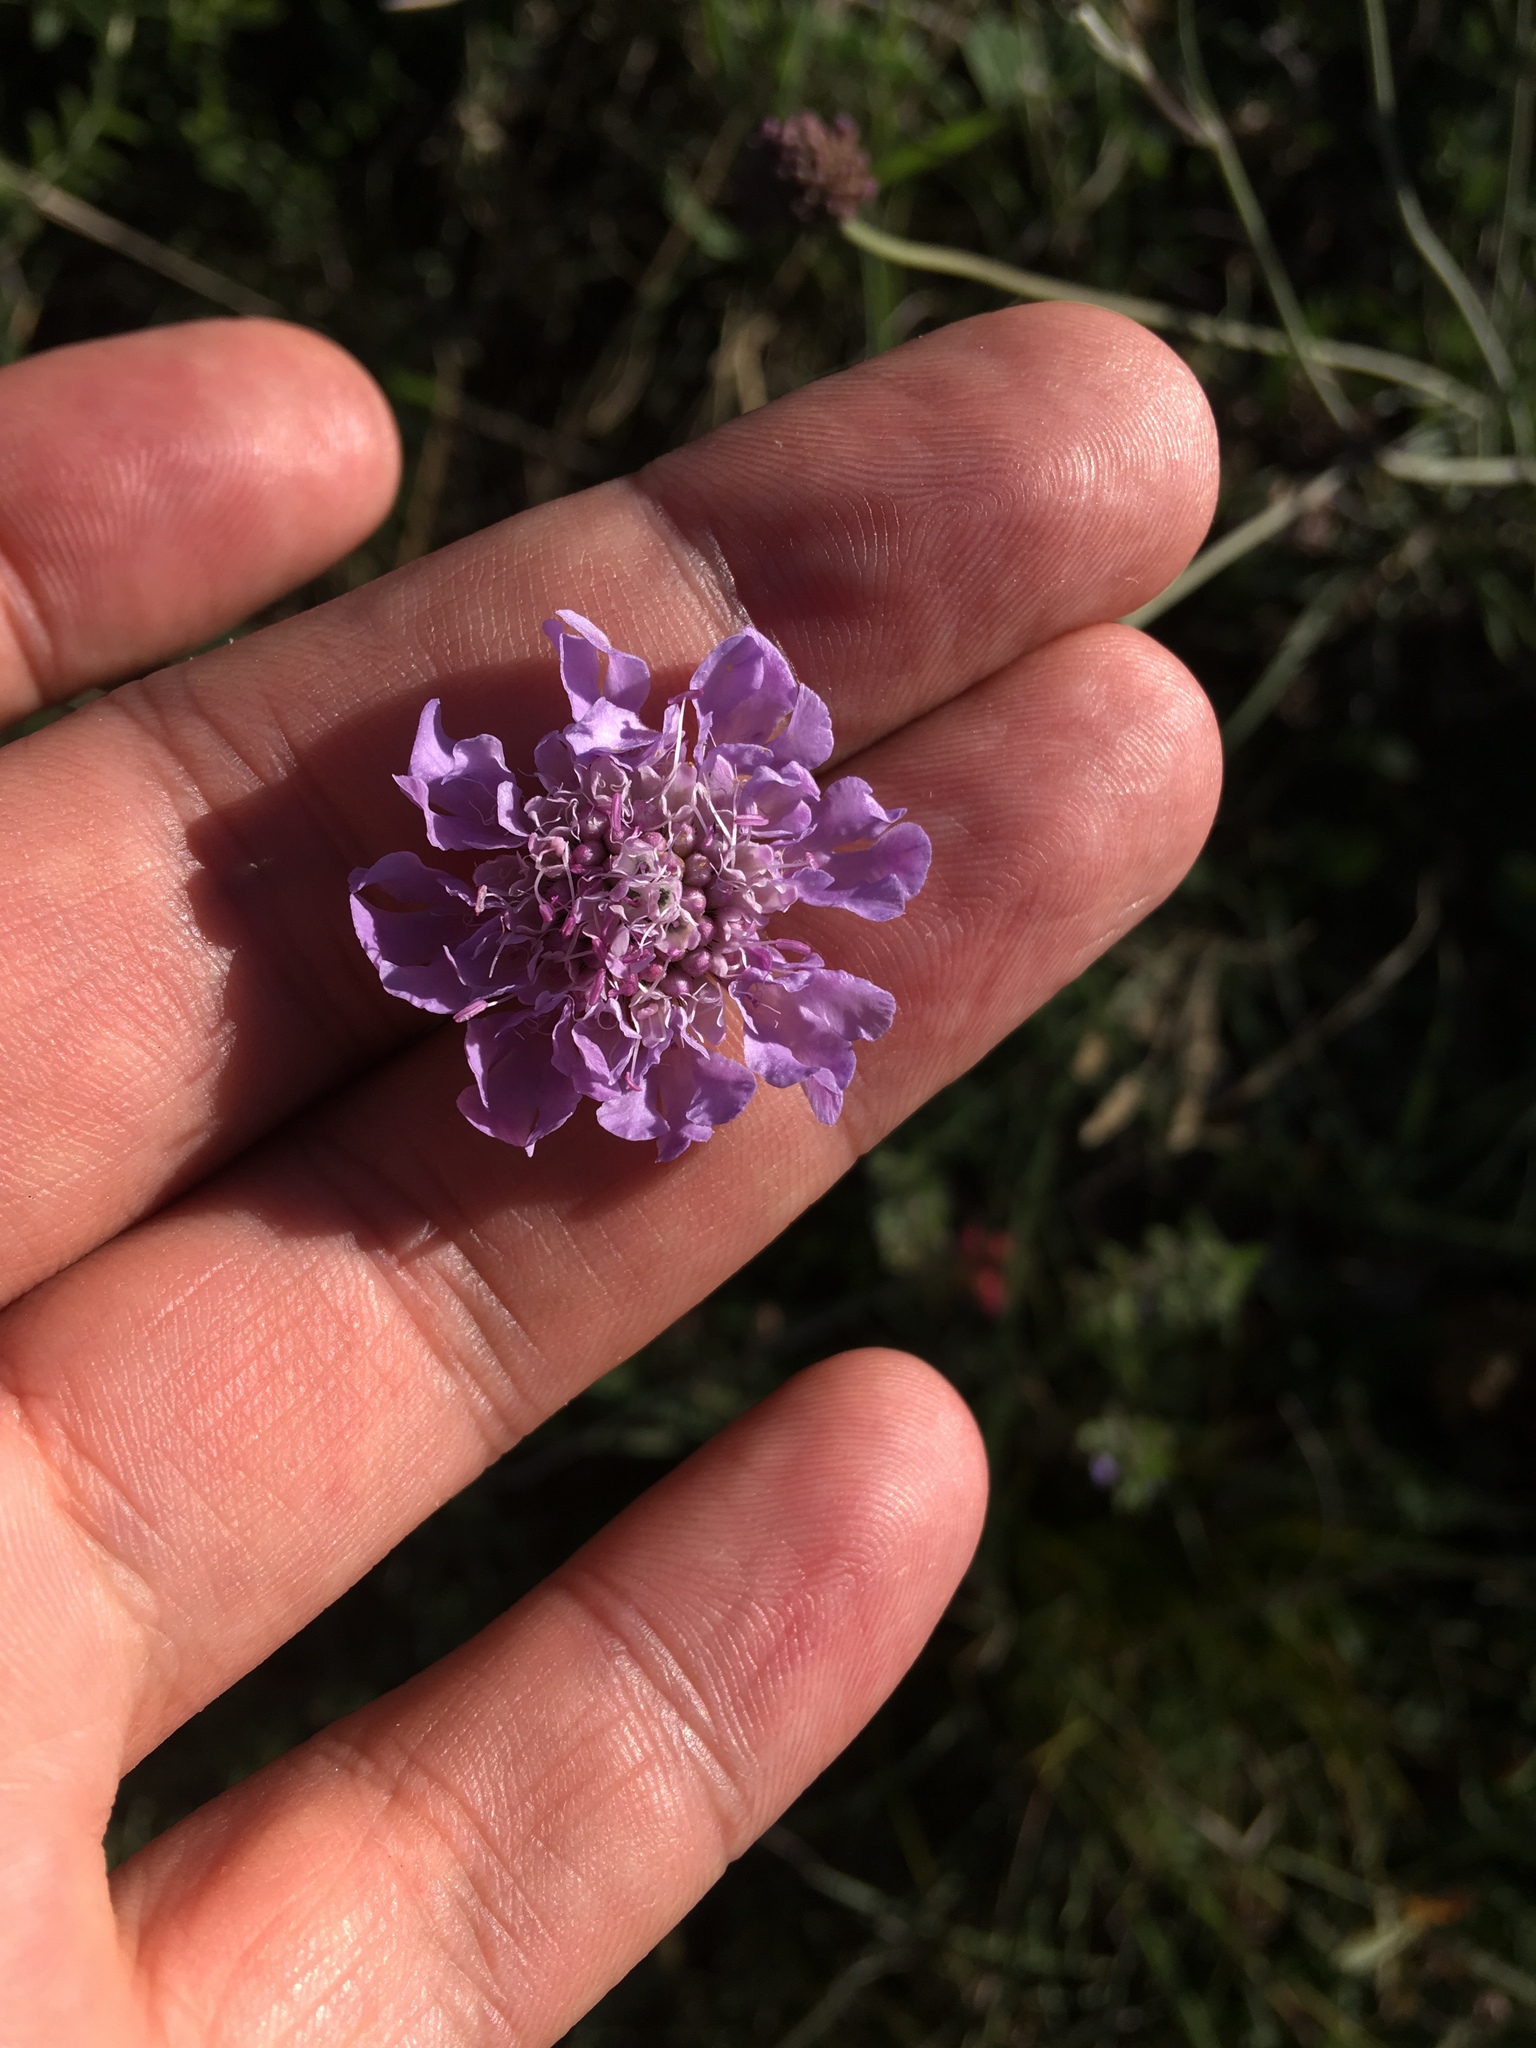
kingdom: Plantae
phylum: Tracheophyta
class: Magnoliopsida
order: Dipsacales
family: Caprifoliaceae
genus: Scabiosa
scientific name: Scabiosa columbaria
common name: Small scabious
